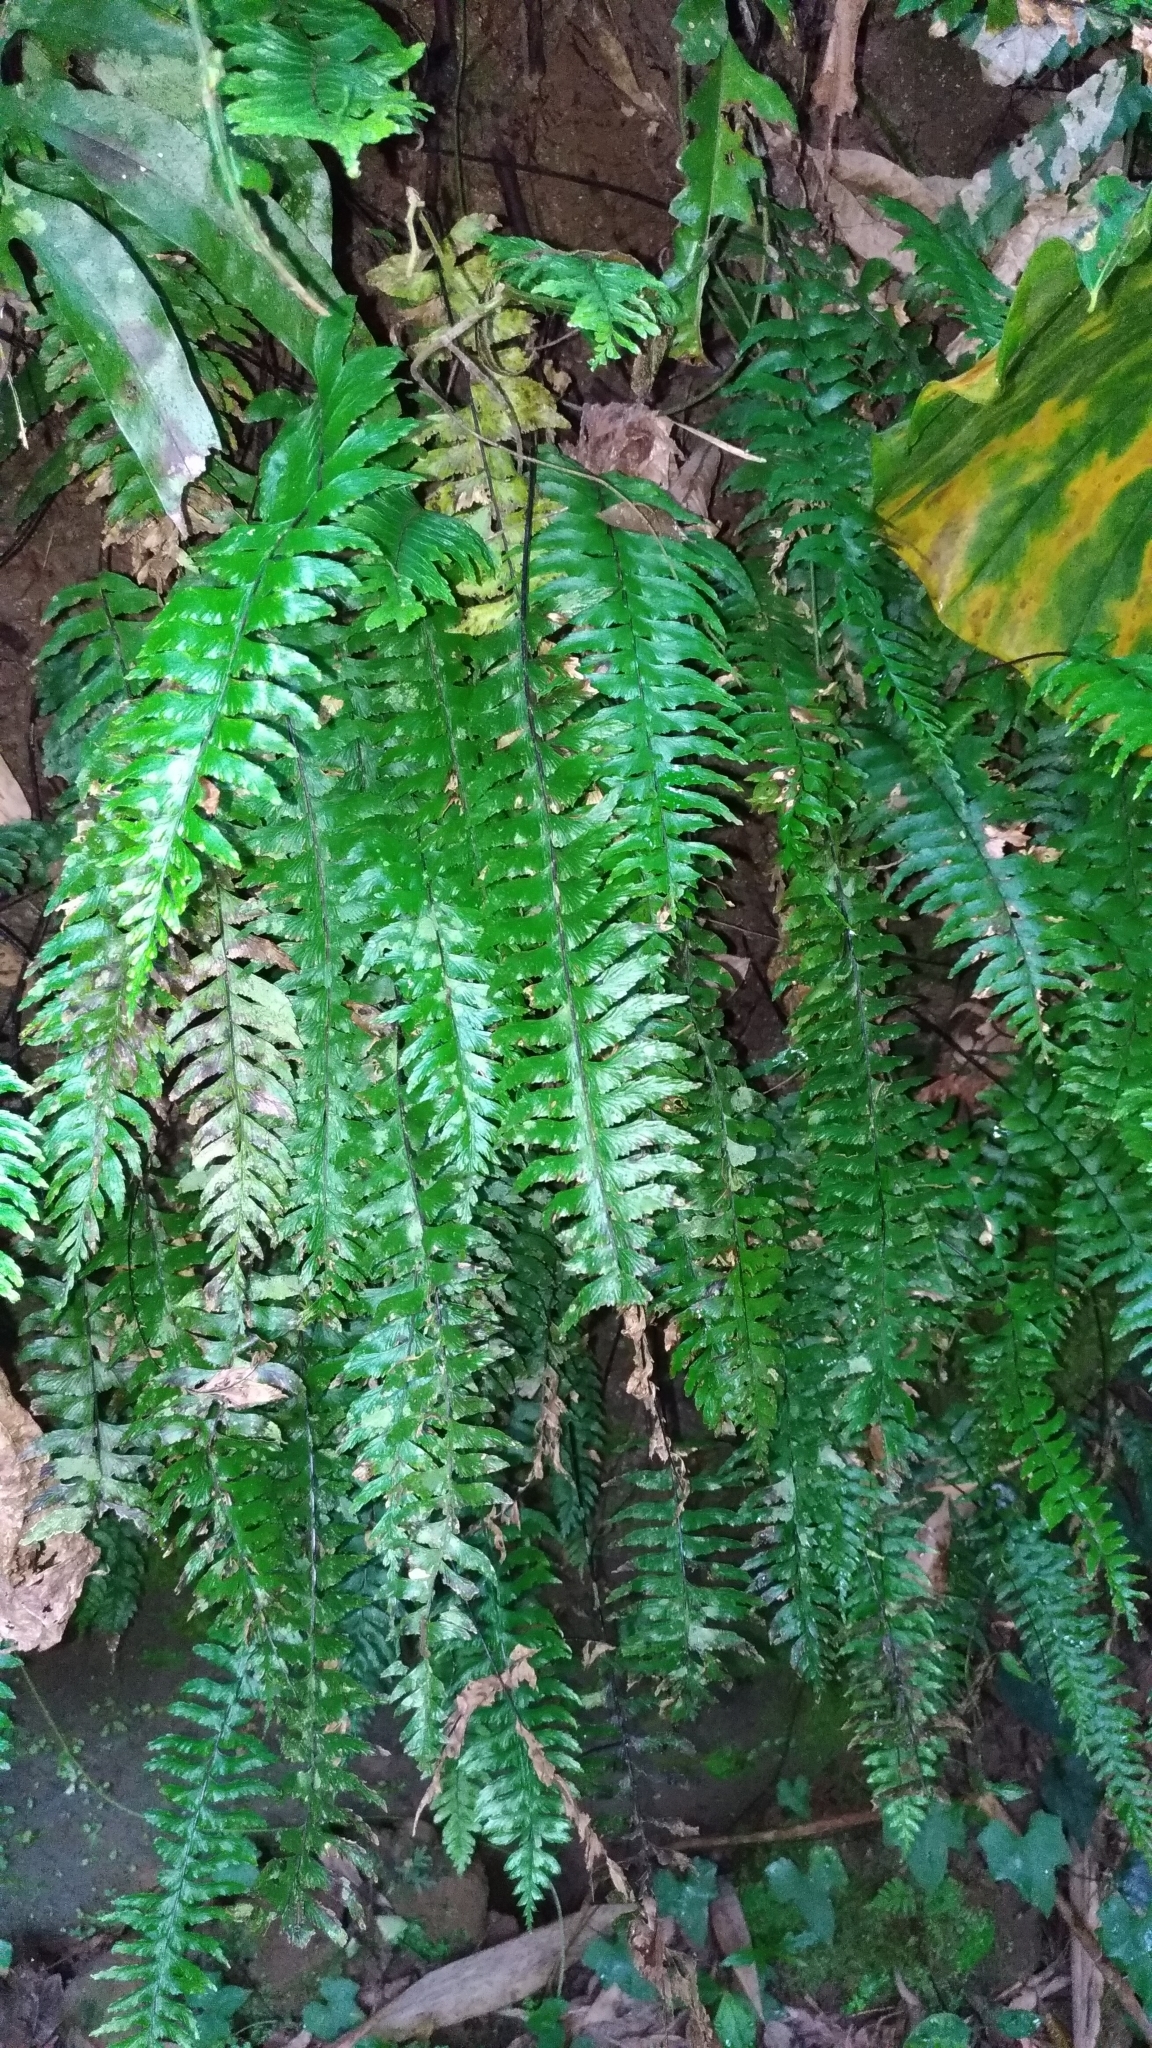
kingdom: Plantae
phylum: Tracheophyta
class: Polypodiopsida
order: Polypodiales
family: Aspleniaceae
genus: Hymenasplenium
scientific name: Hymenasplenium unilaterale
